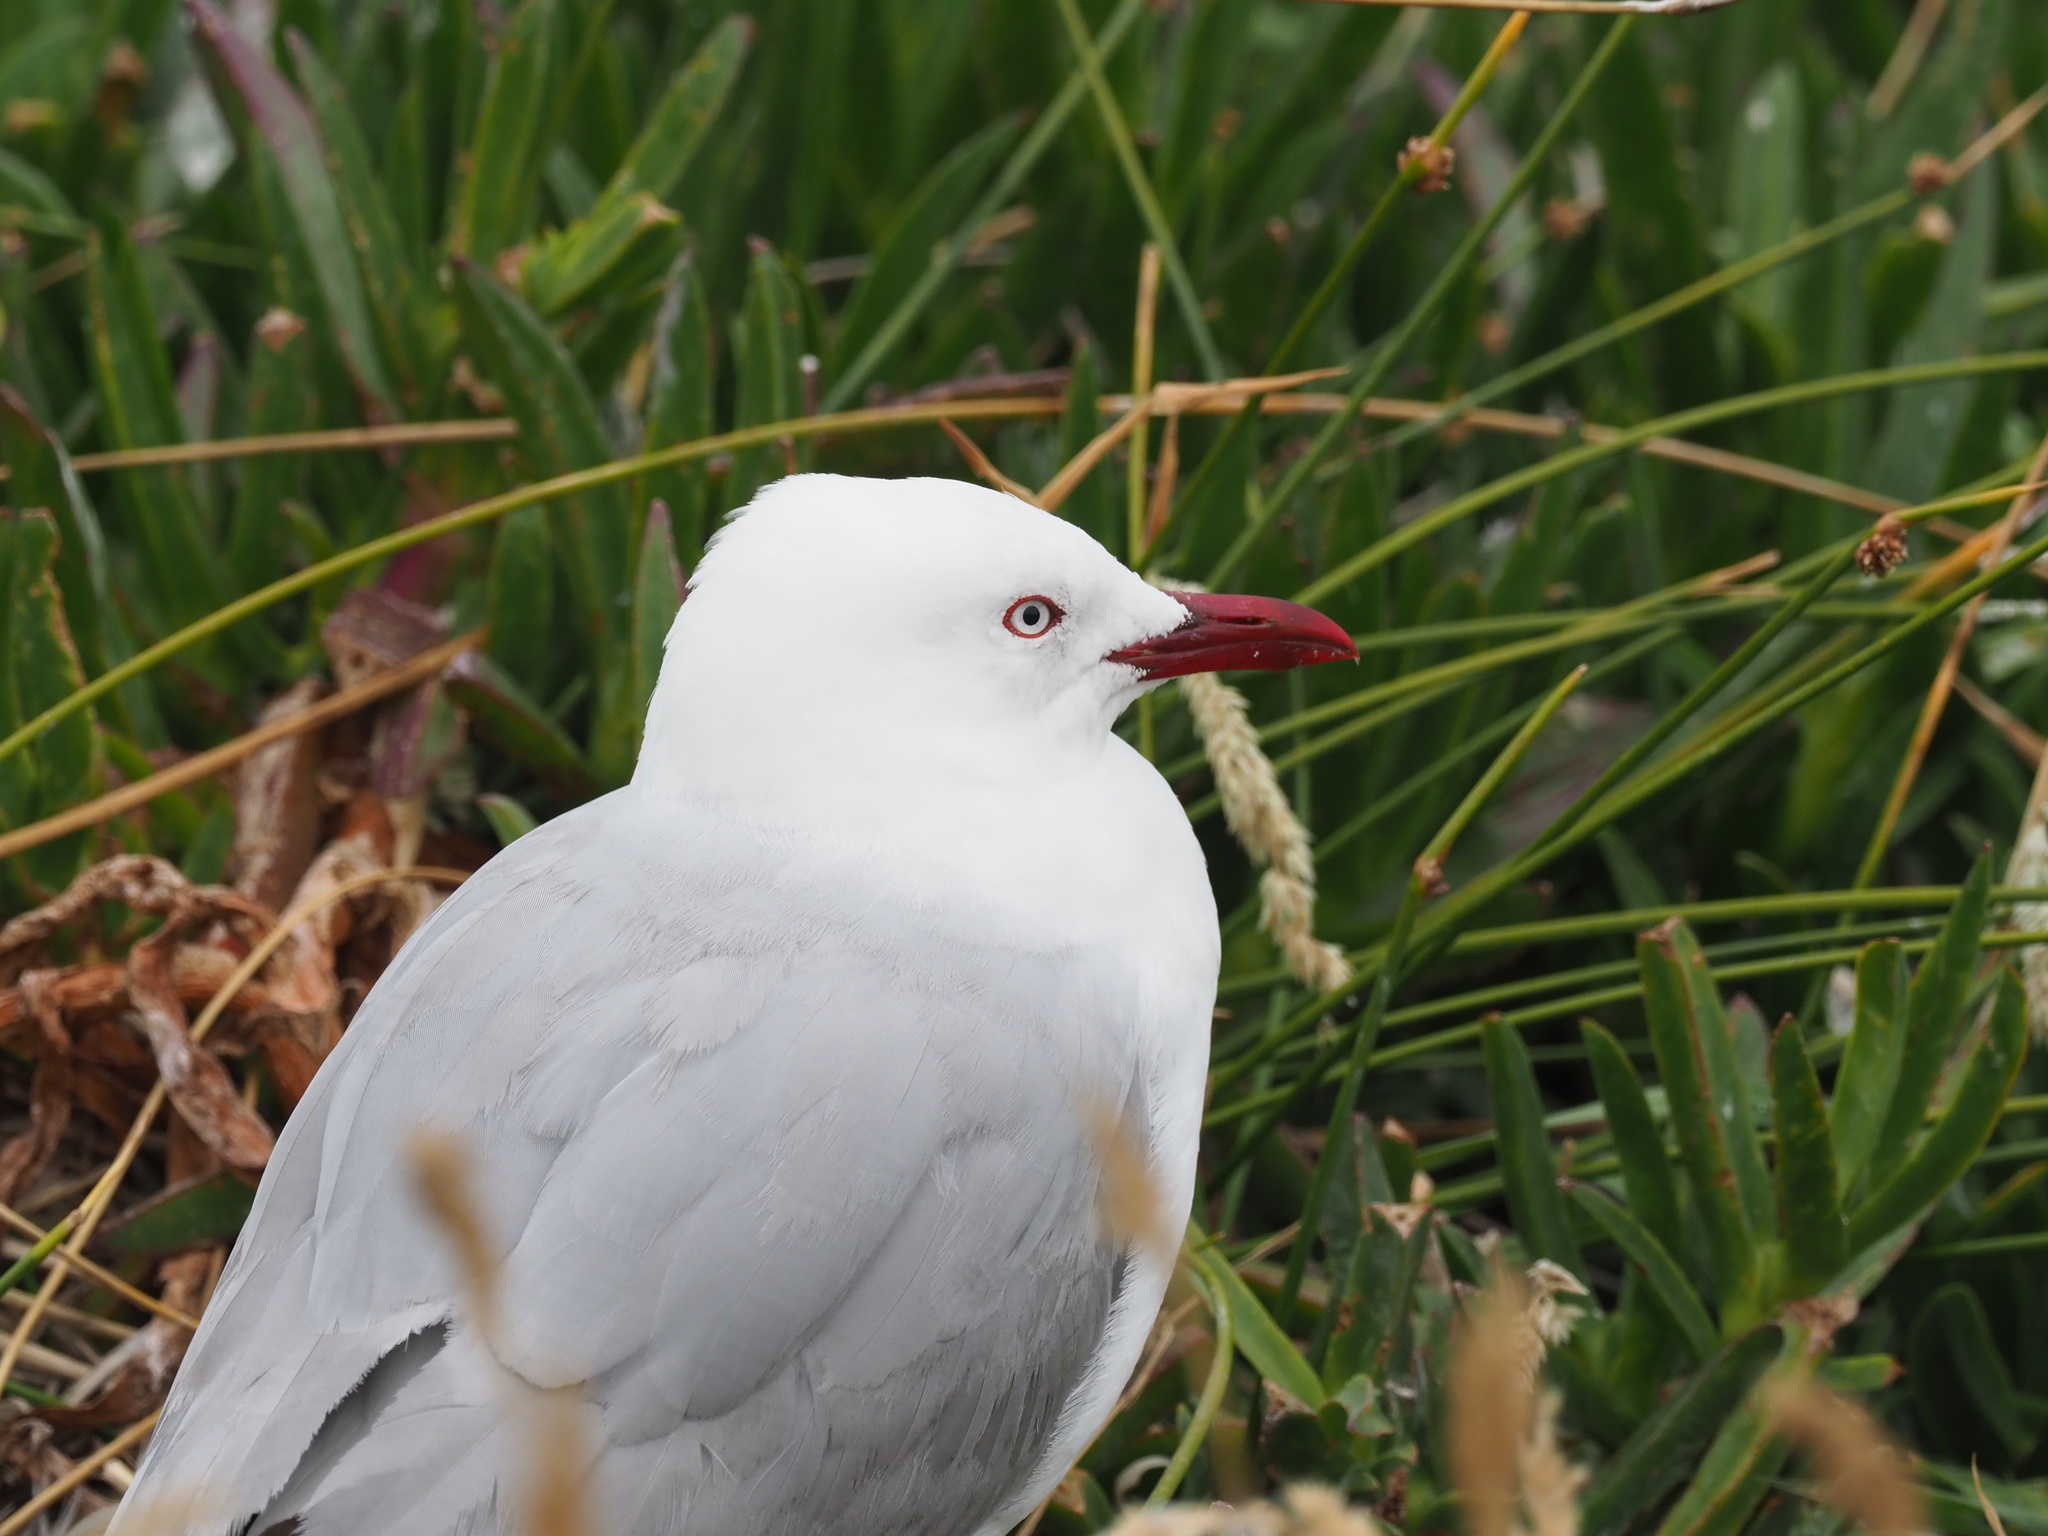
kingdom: Animalia
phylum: Chordata
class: Aves
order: Charadriiformes
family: Laridae
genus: Chroicocephalus
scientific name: Chroicocephalus novaehollandiae
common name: Silver gull
